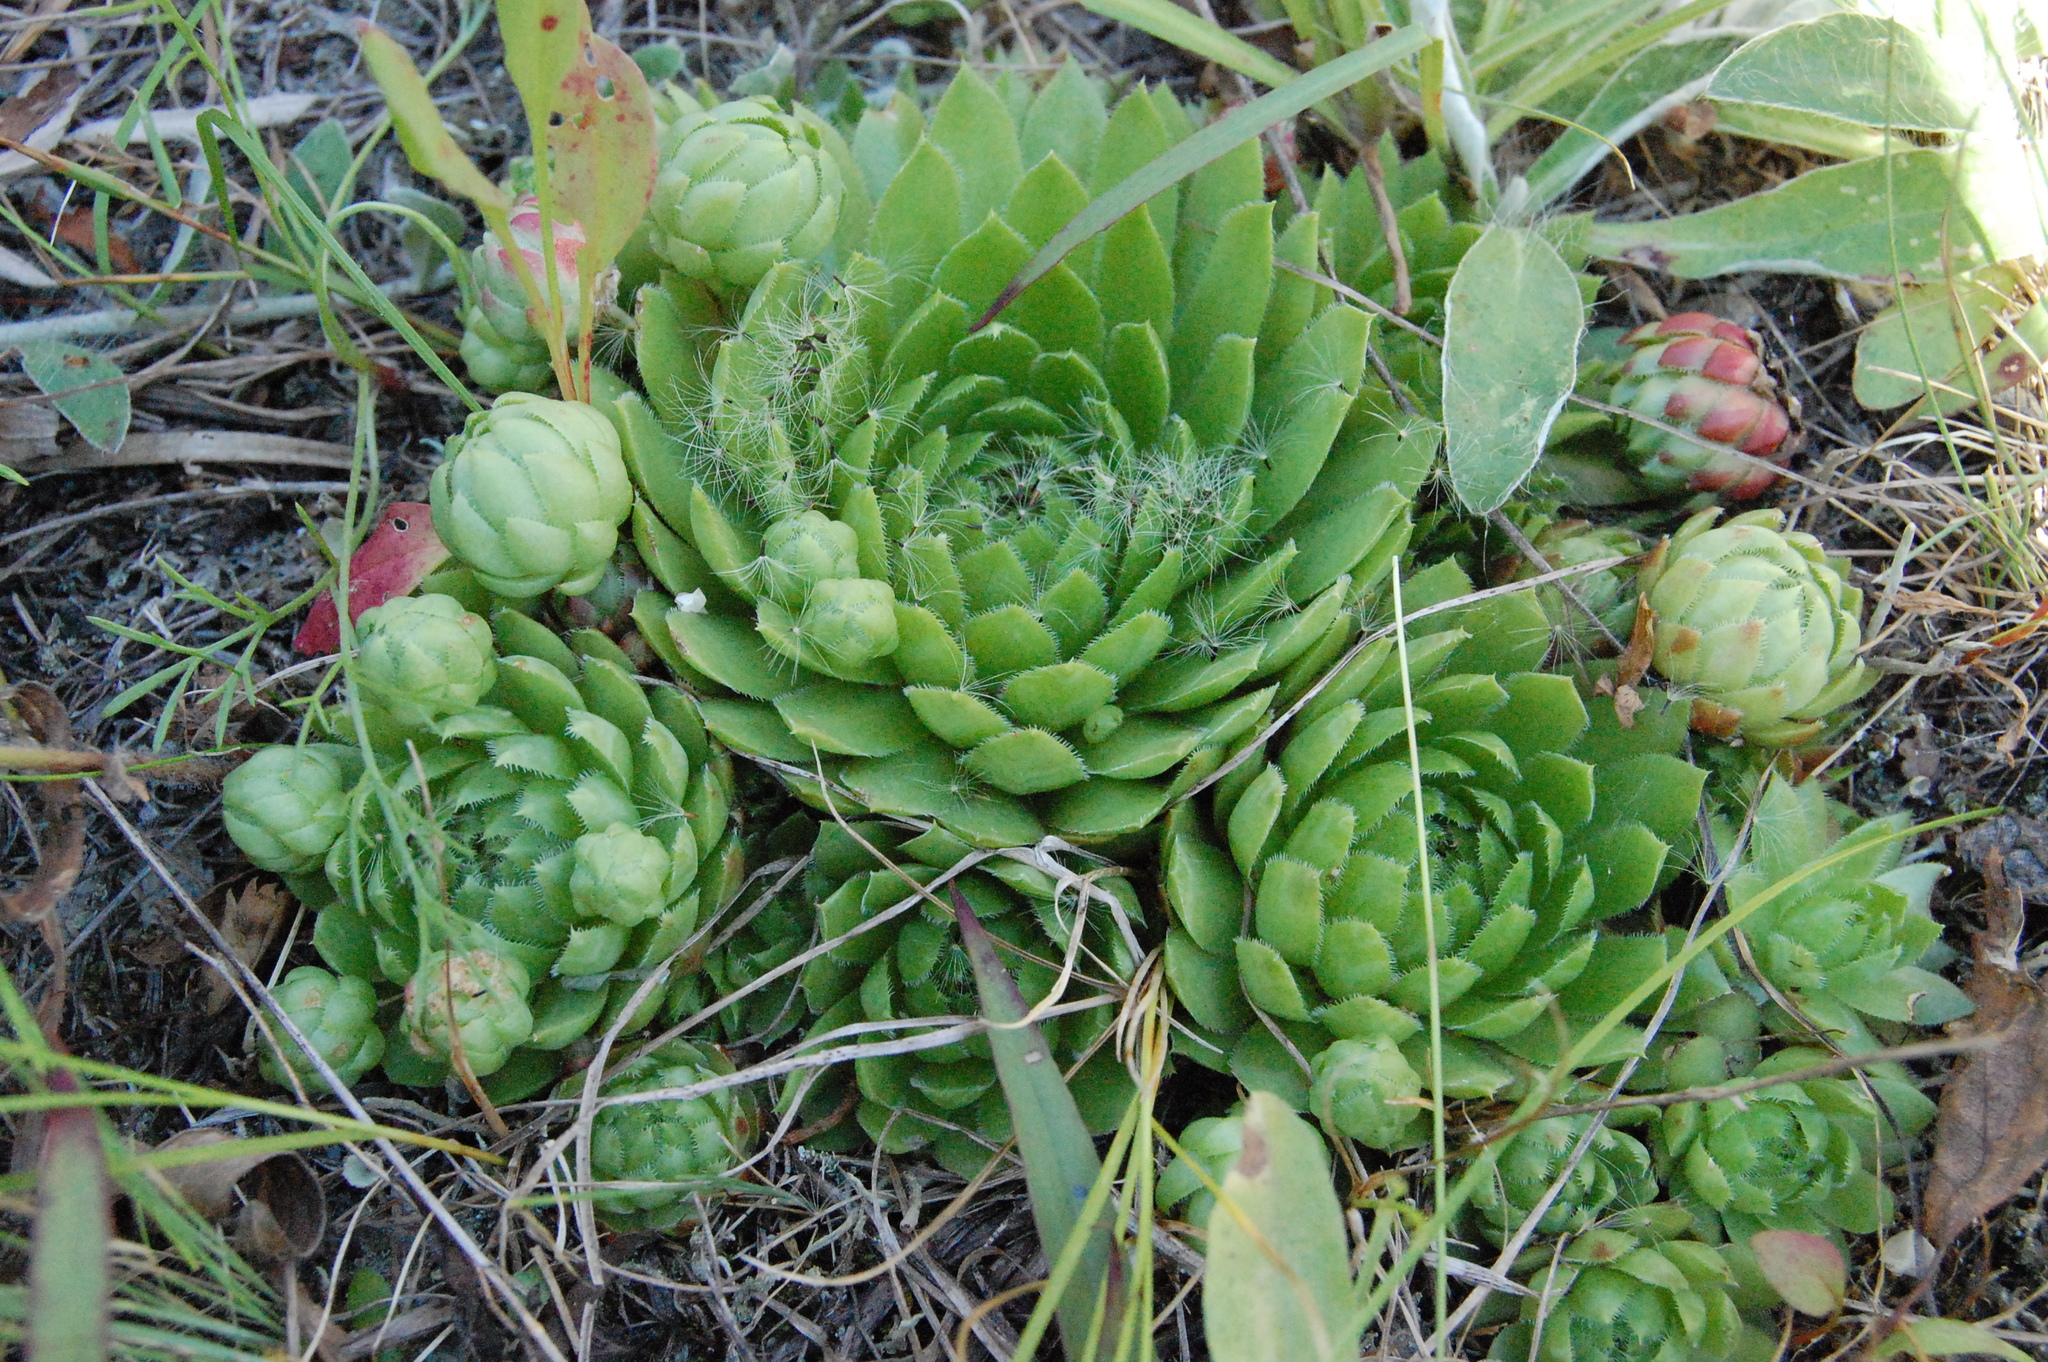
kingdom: Plantae
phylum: Tracheophyta
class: Magnoliopsida
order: Saxifragales
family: Crassulaceae
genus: Sempervivum
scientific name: Sempervivum globiferum
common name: Rolling hen-and-chicks
